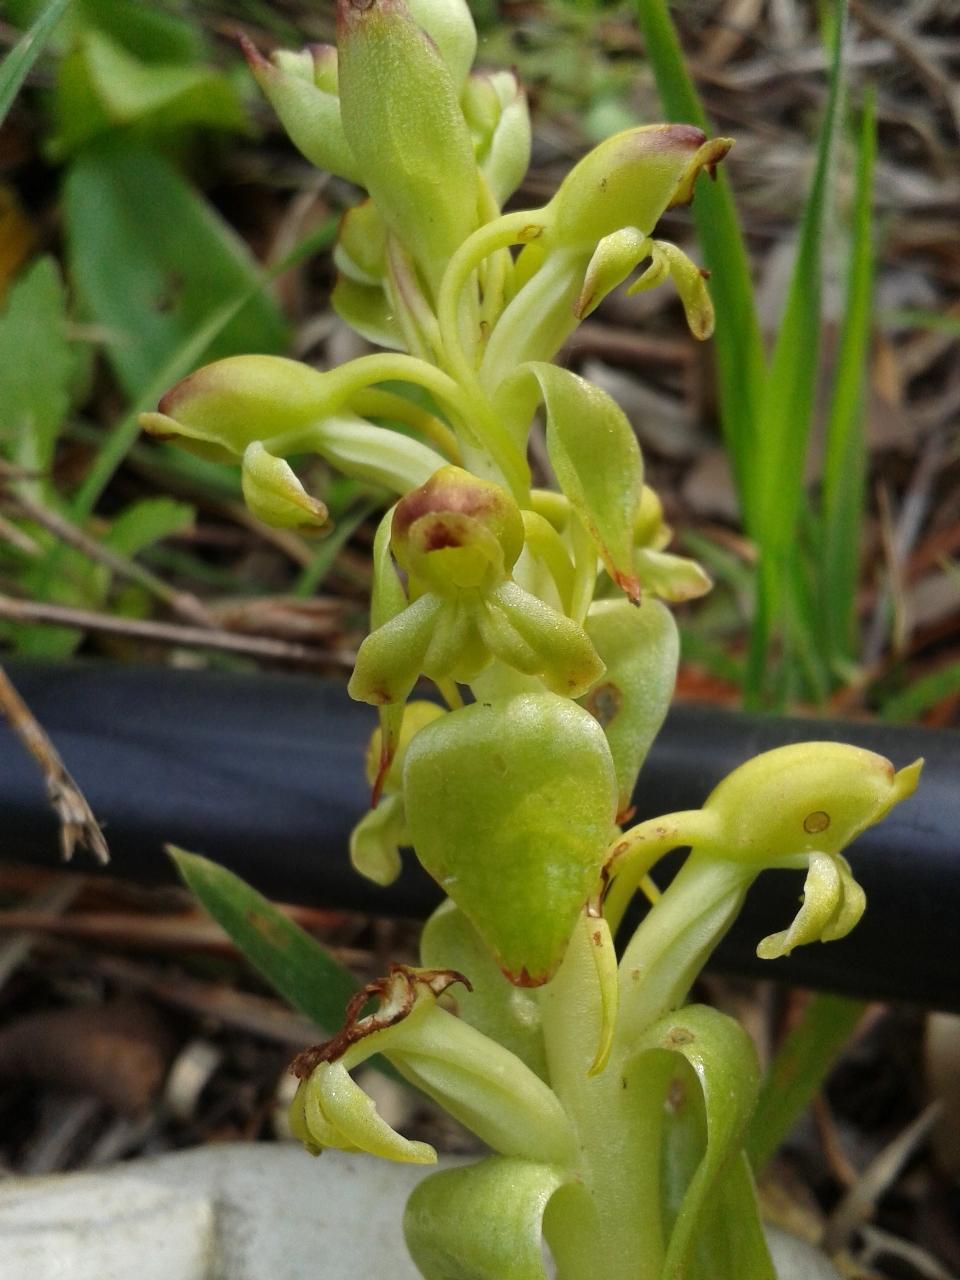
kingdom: Plantae
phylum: Tracheophyta
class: Liliopsida
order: Asparagales
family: Orchidaceae
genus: Satyrium
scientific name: Satyrium odorum
